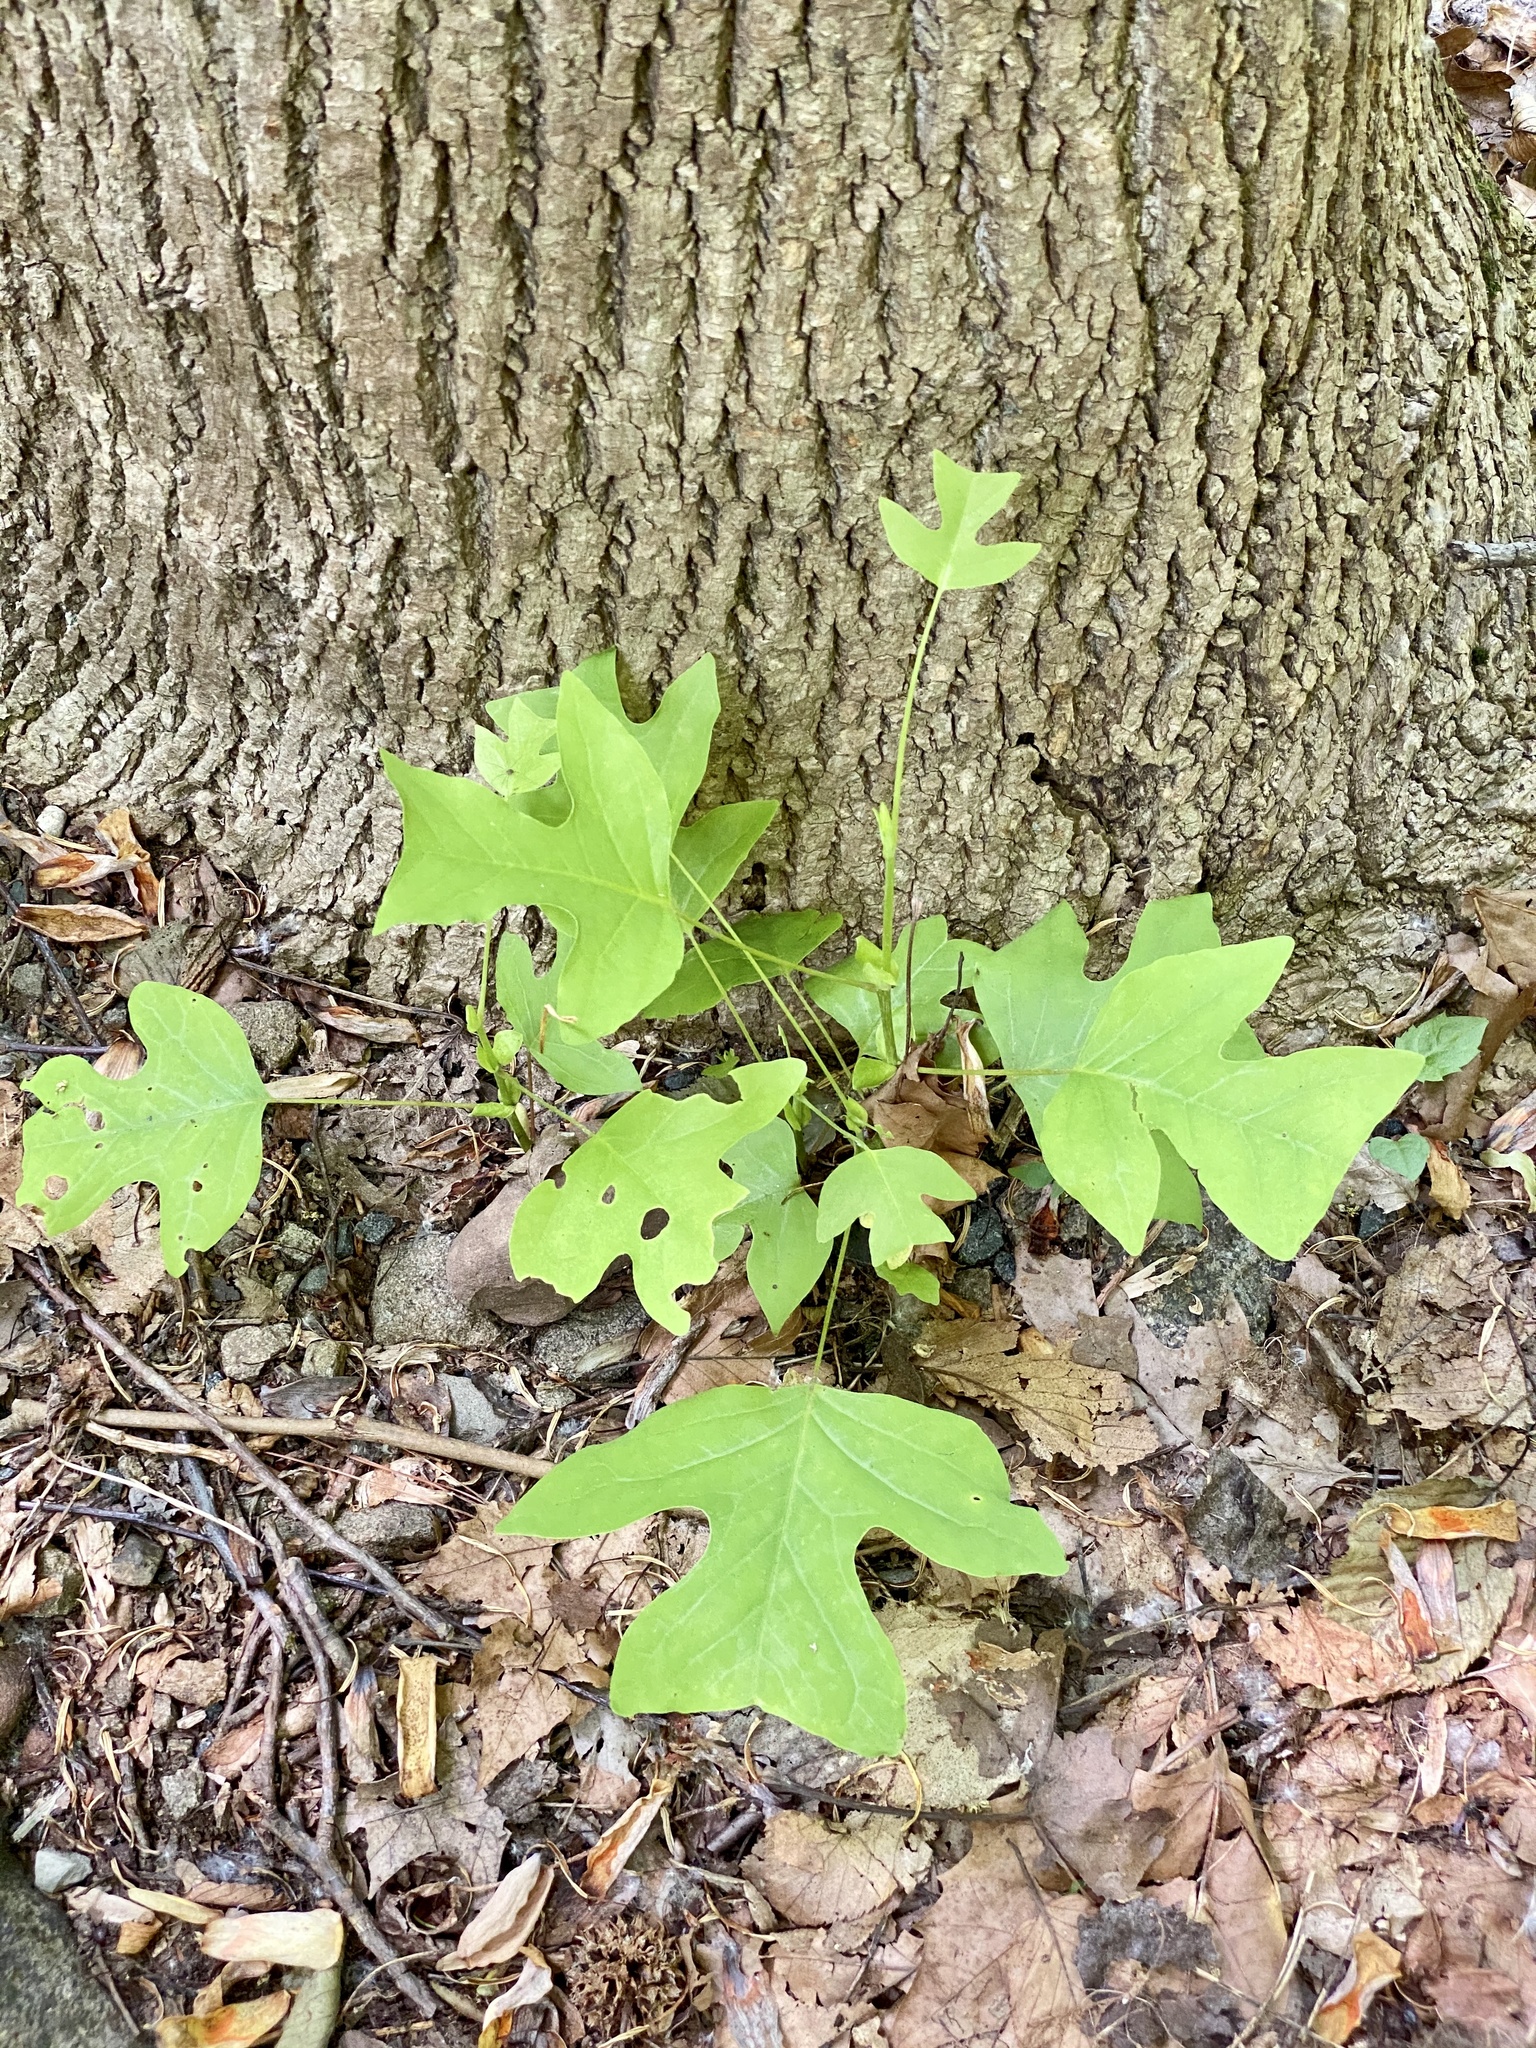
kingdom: Plantae
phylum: Tracheophyta
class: Magnoliopsida
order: Magnoliales
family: Magnoliaceae
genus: Liriodendron
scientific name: Liriodendron tulipifera
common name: Tulip tree
